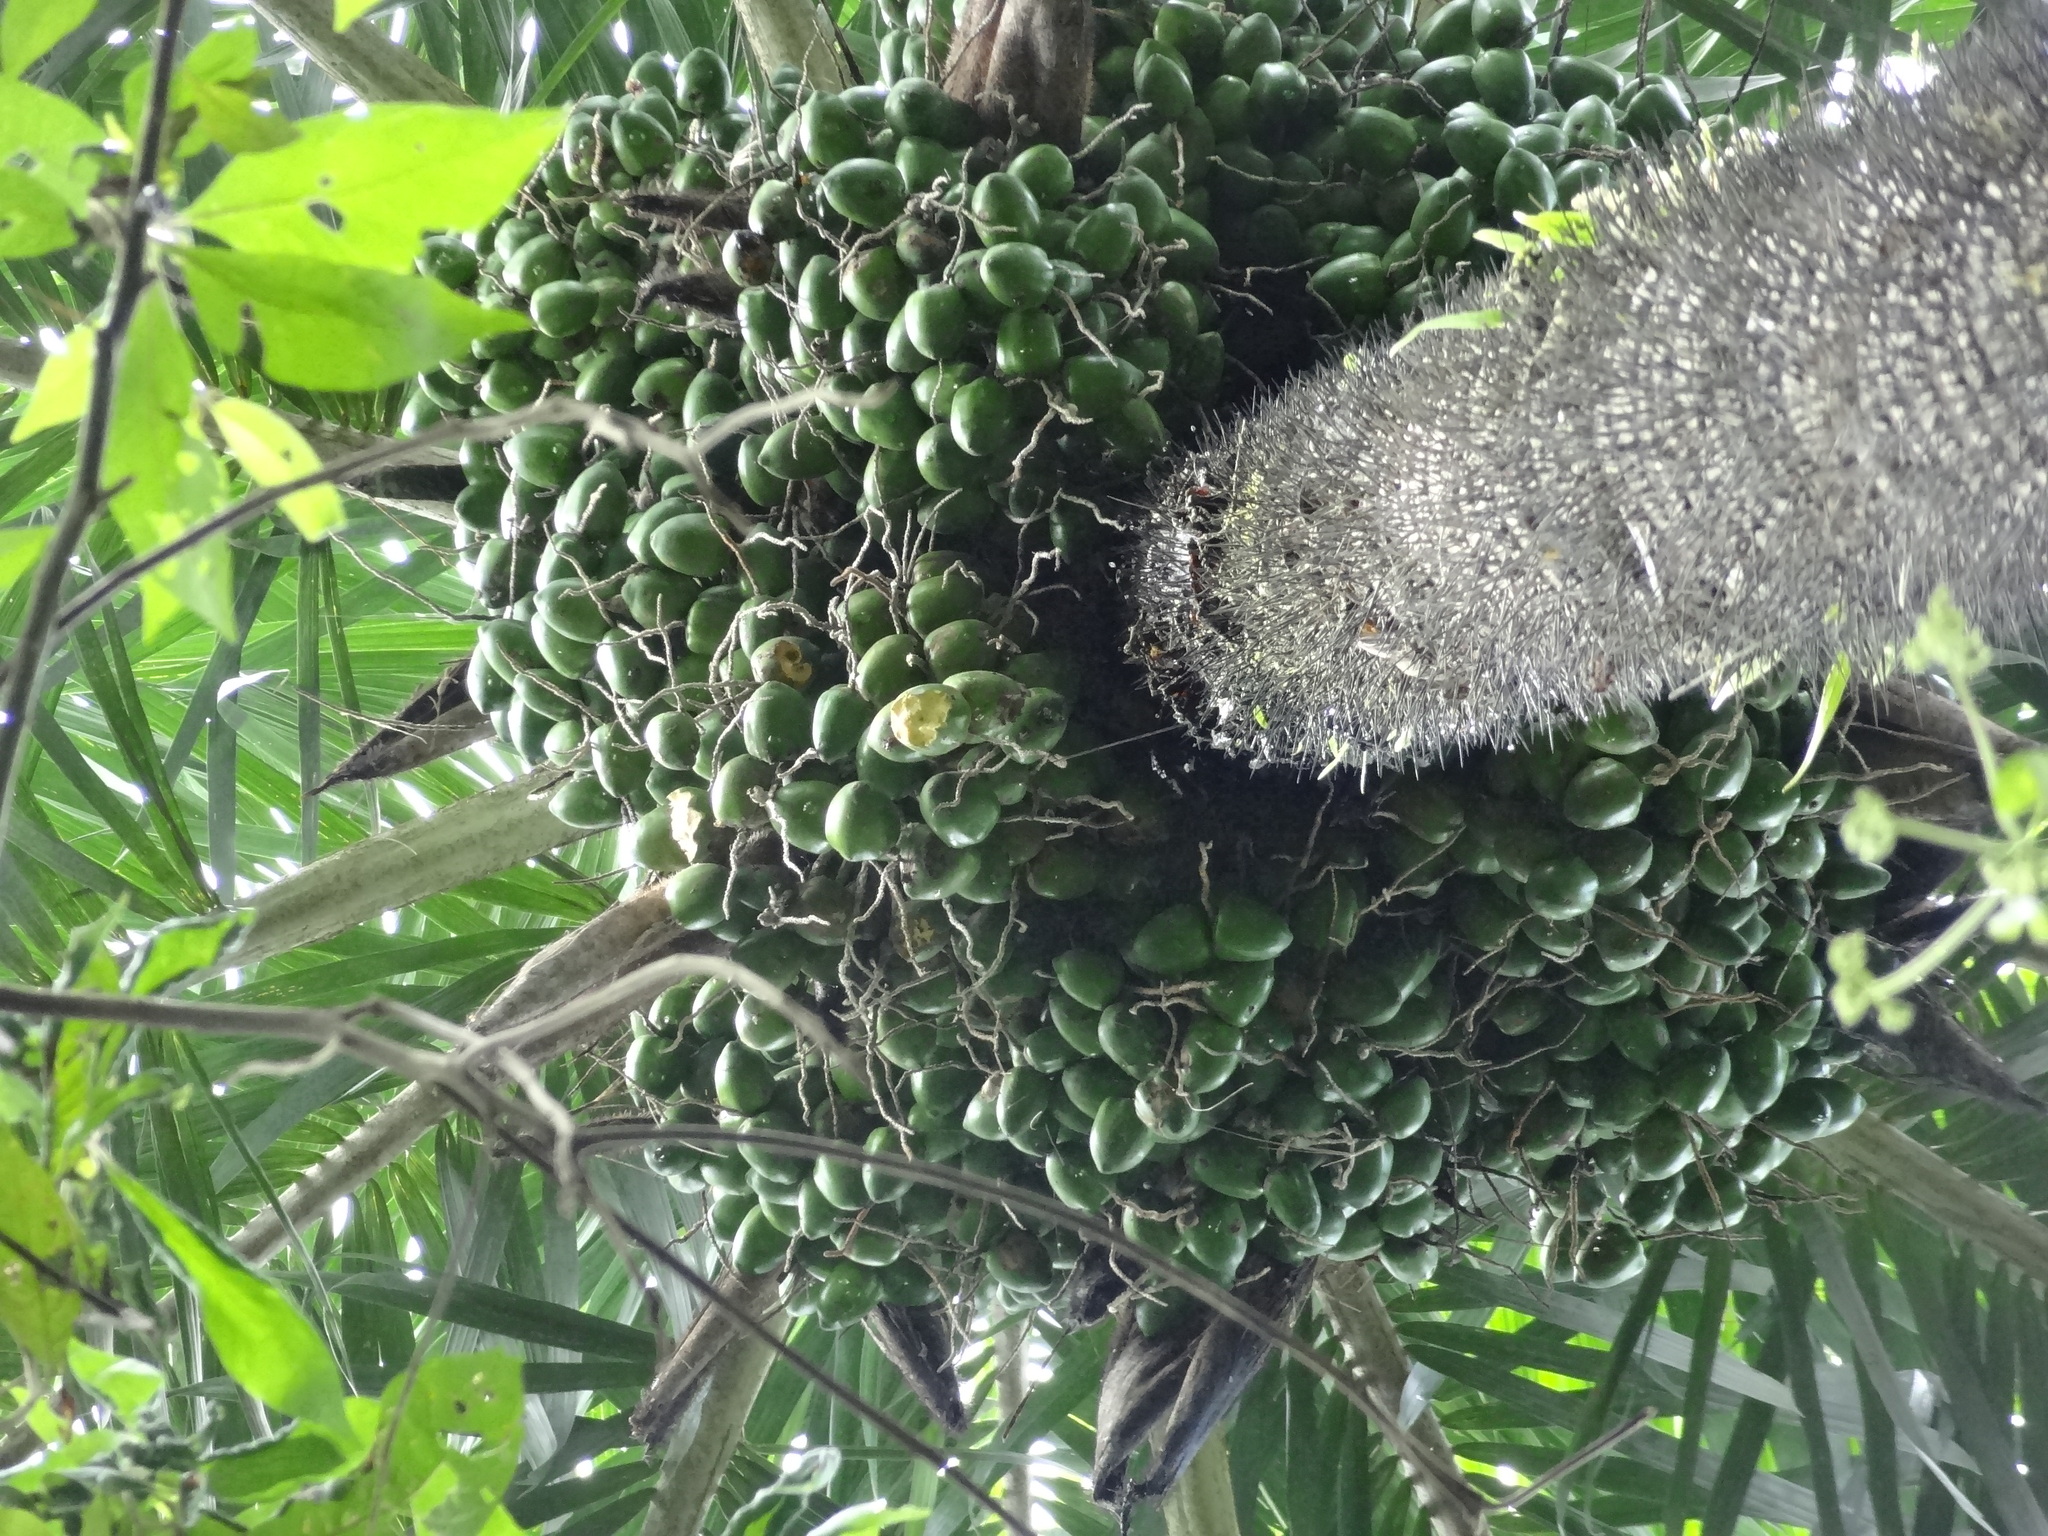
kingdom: Plantae
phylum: Tracheophyta
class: Liliopsida
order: Arecales
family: Arecaceae
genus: Bactris
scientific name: Bactris gasipaes
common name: Peach palm
